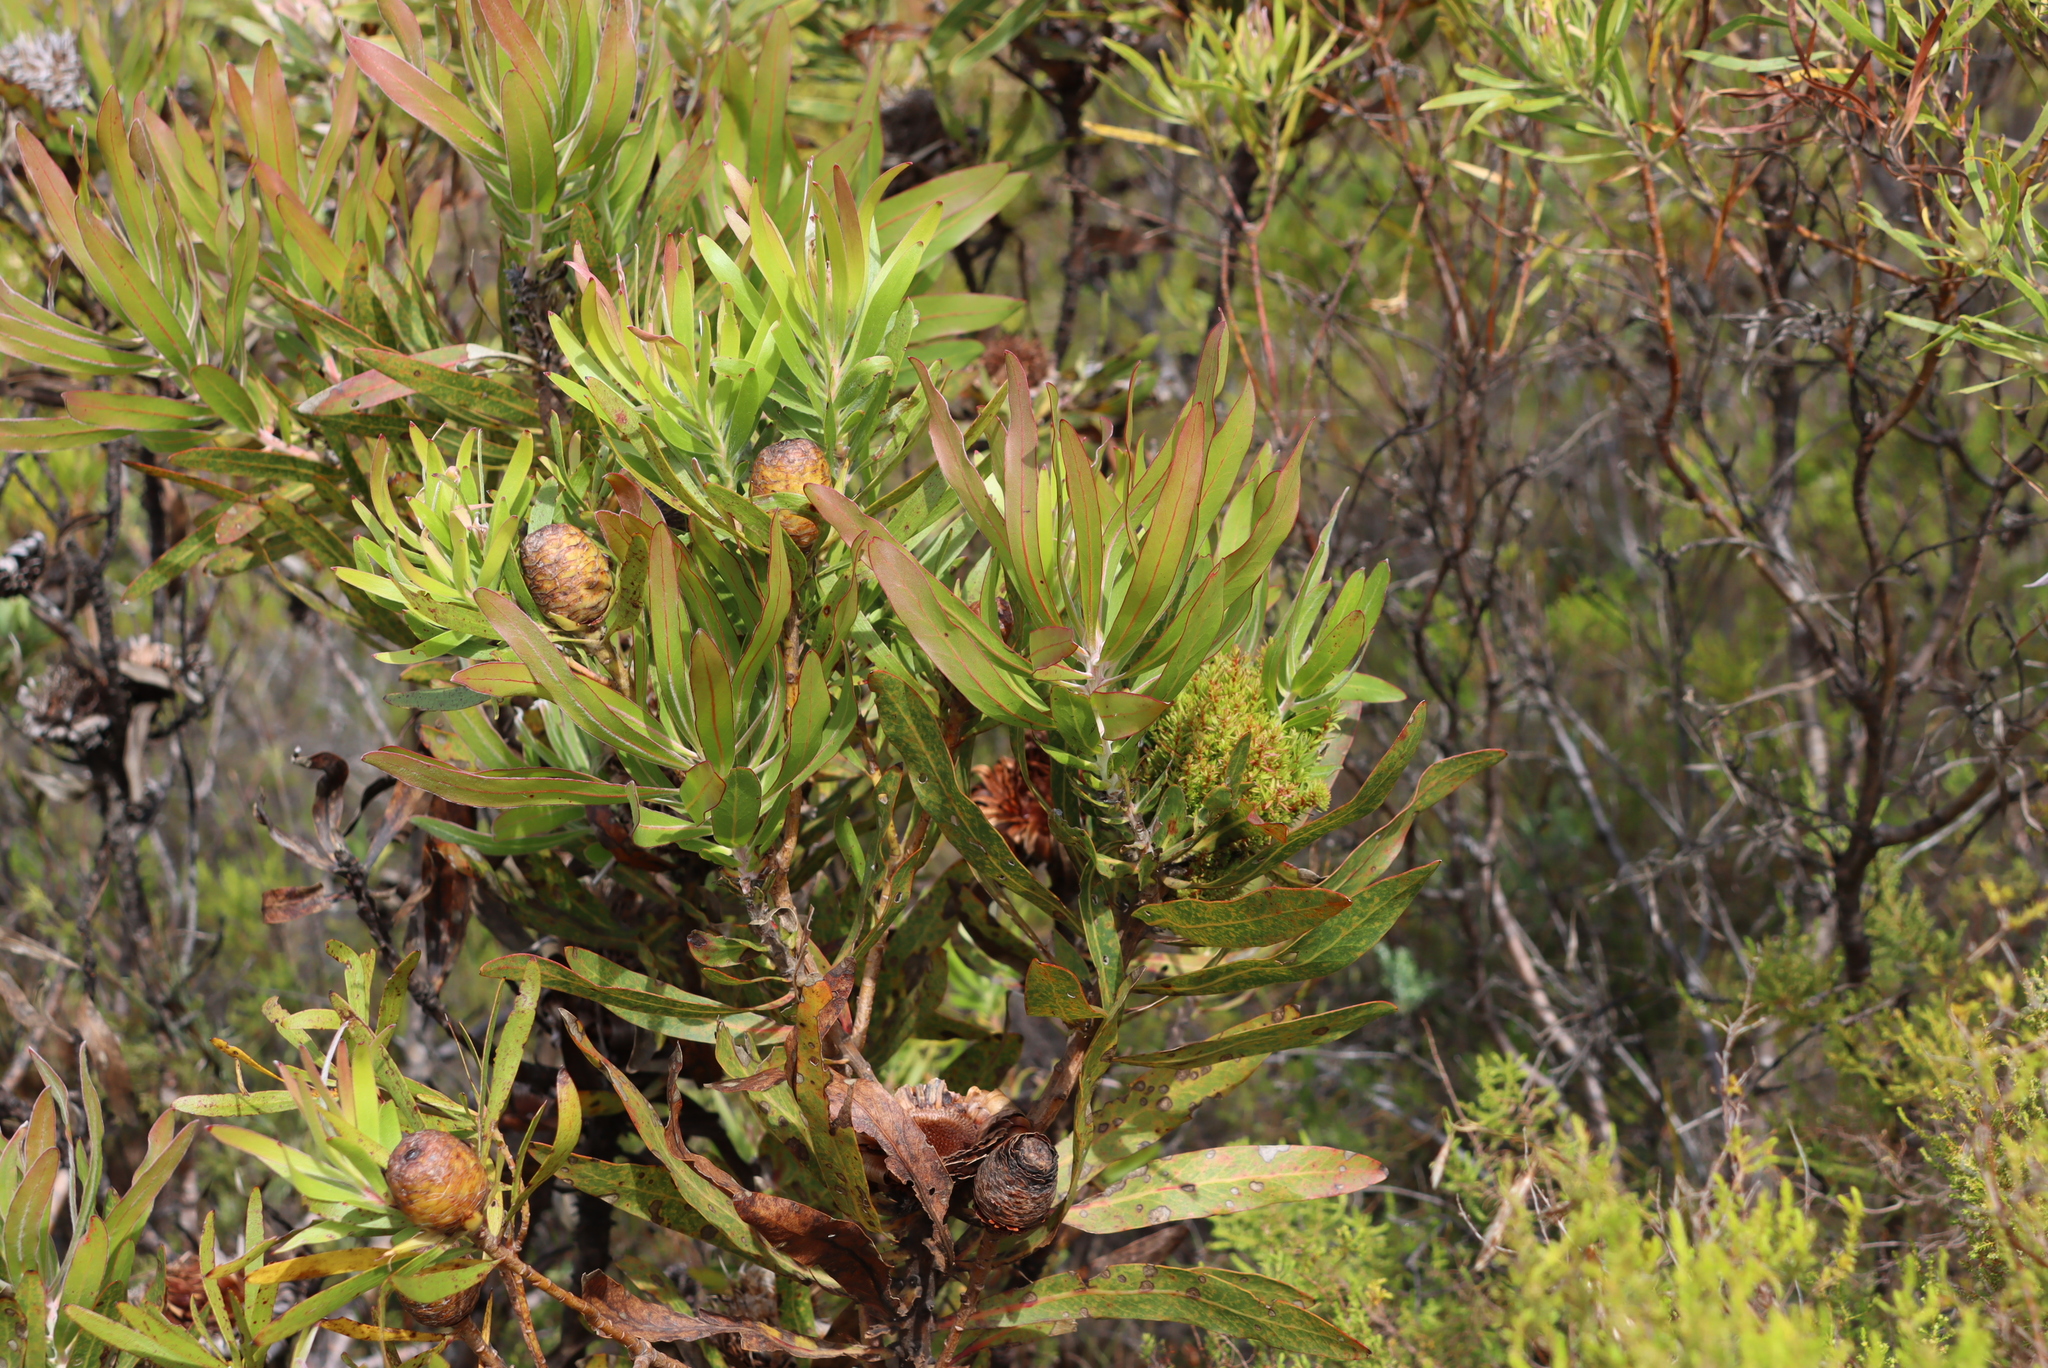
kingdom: Bacteria
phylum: Firmicutes
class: Bacilli
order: Acholeplasmatales
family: Acholeplasmataceae
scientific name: Acholeplasmataceae
